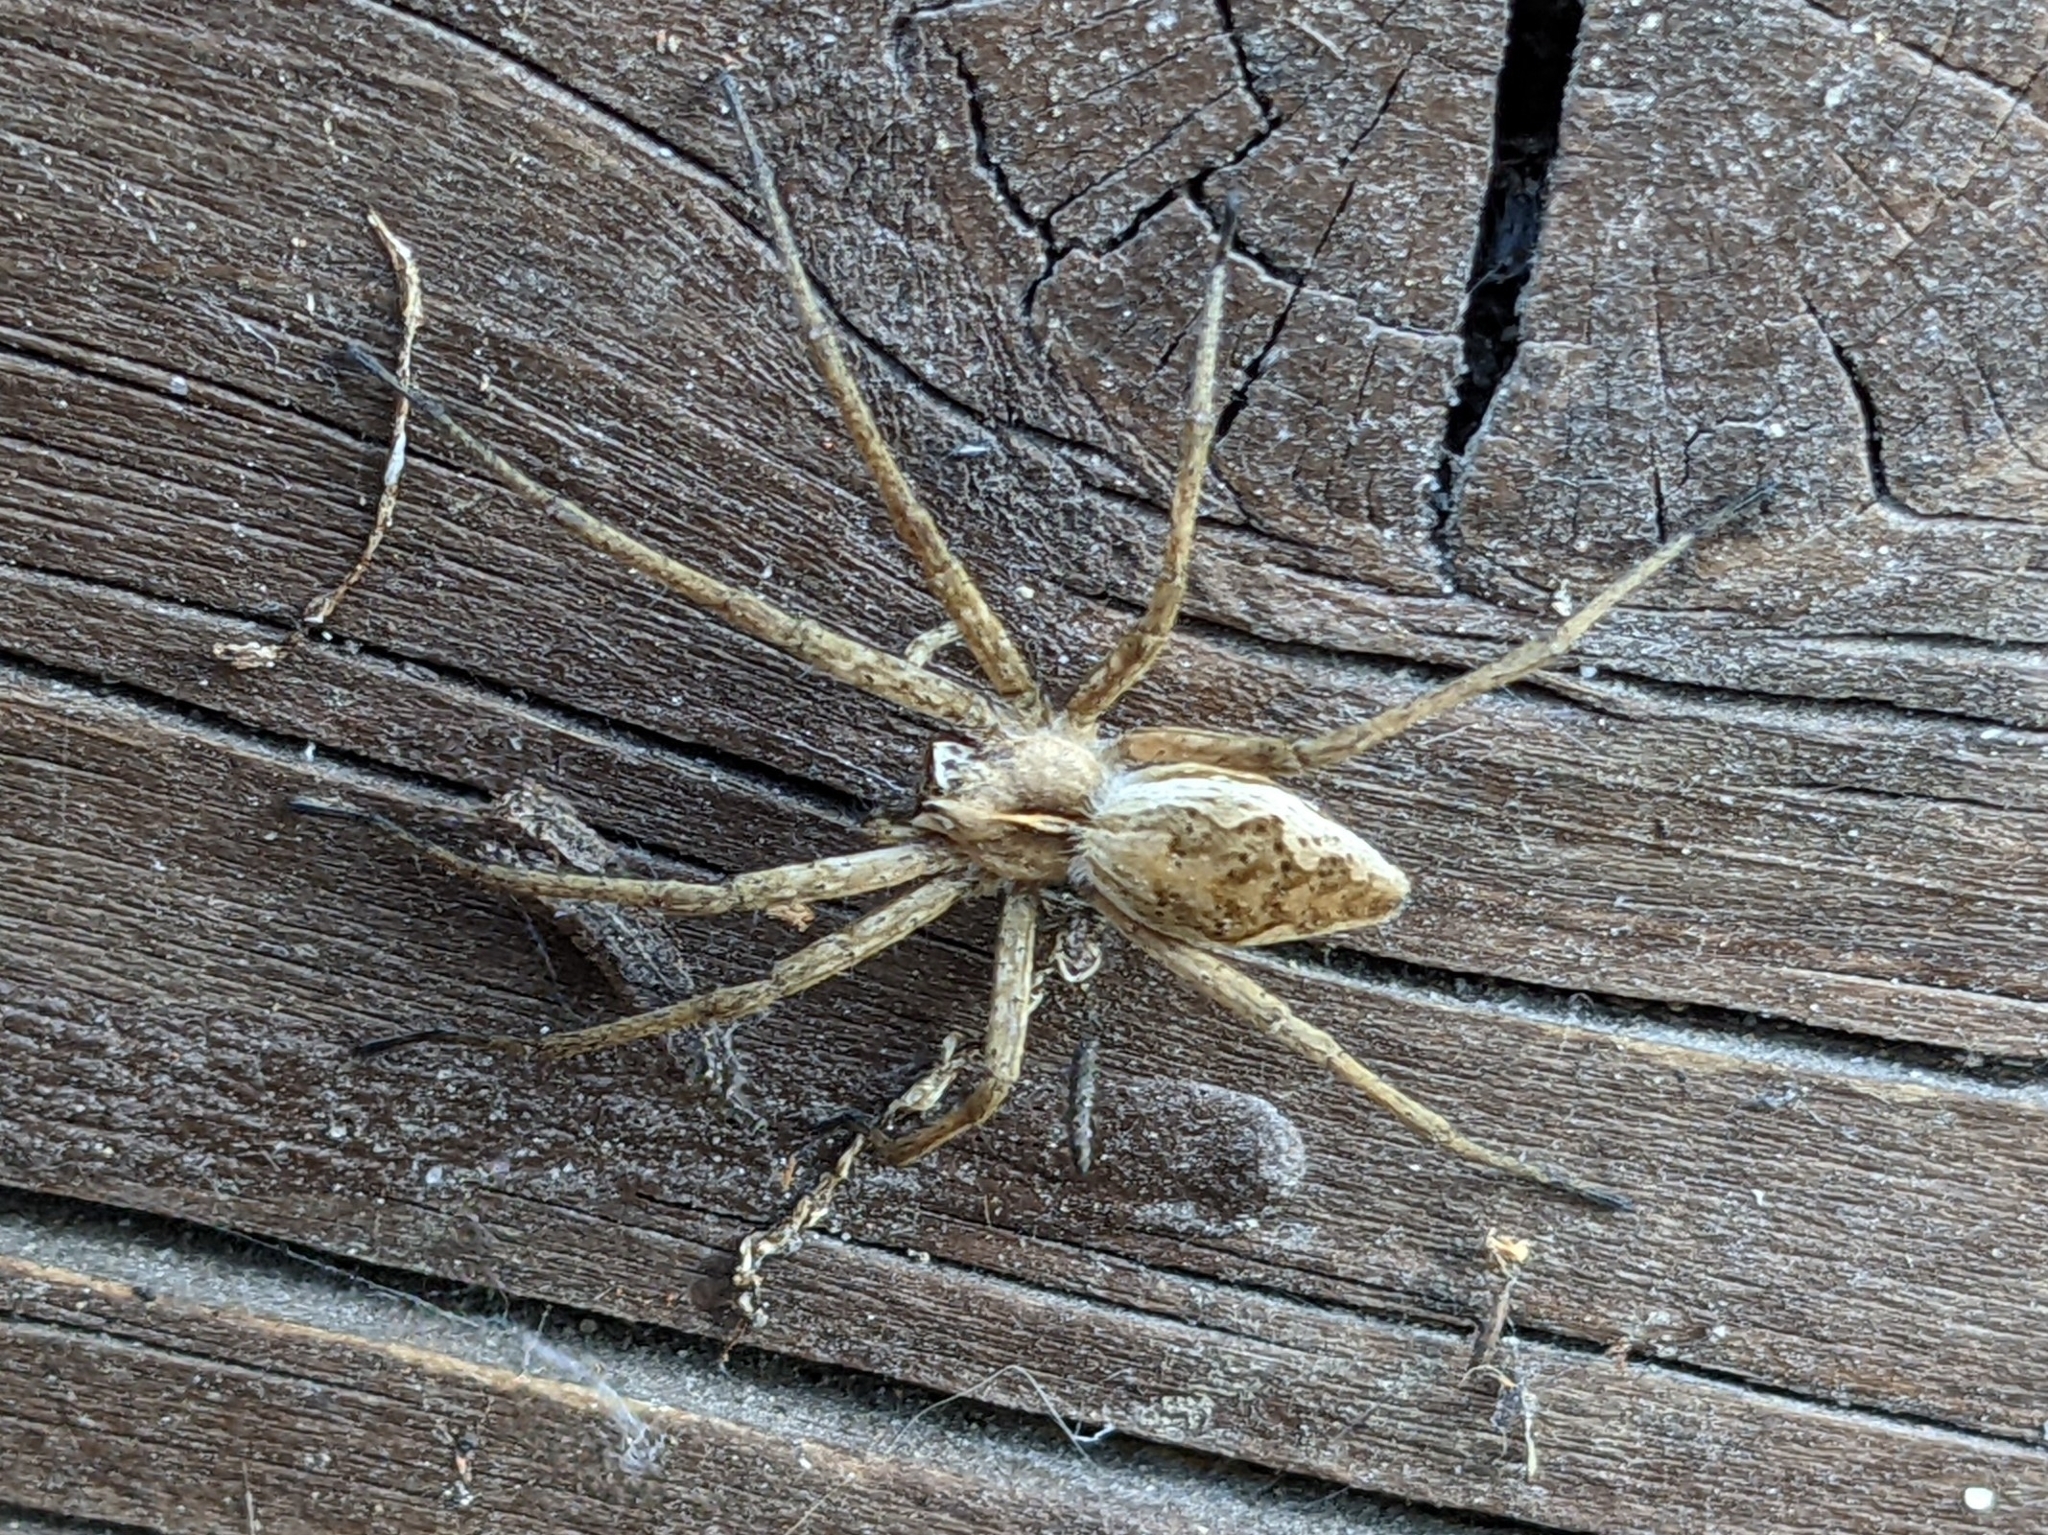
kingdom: Animalia
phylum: Arthropoda
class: Arachnida
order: Araneae
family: Pisauridae
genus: Pisaura
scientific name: Pisaura mirabilis
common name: Tent spider
